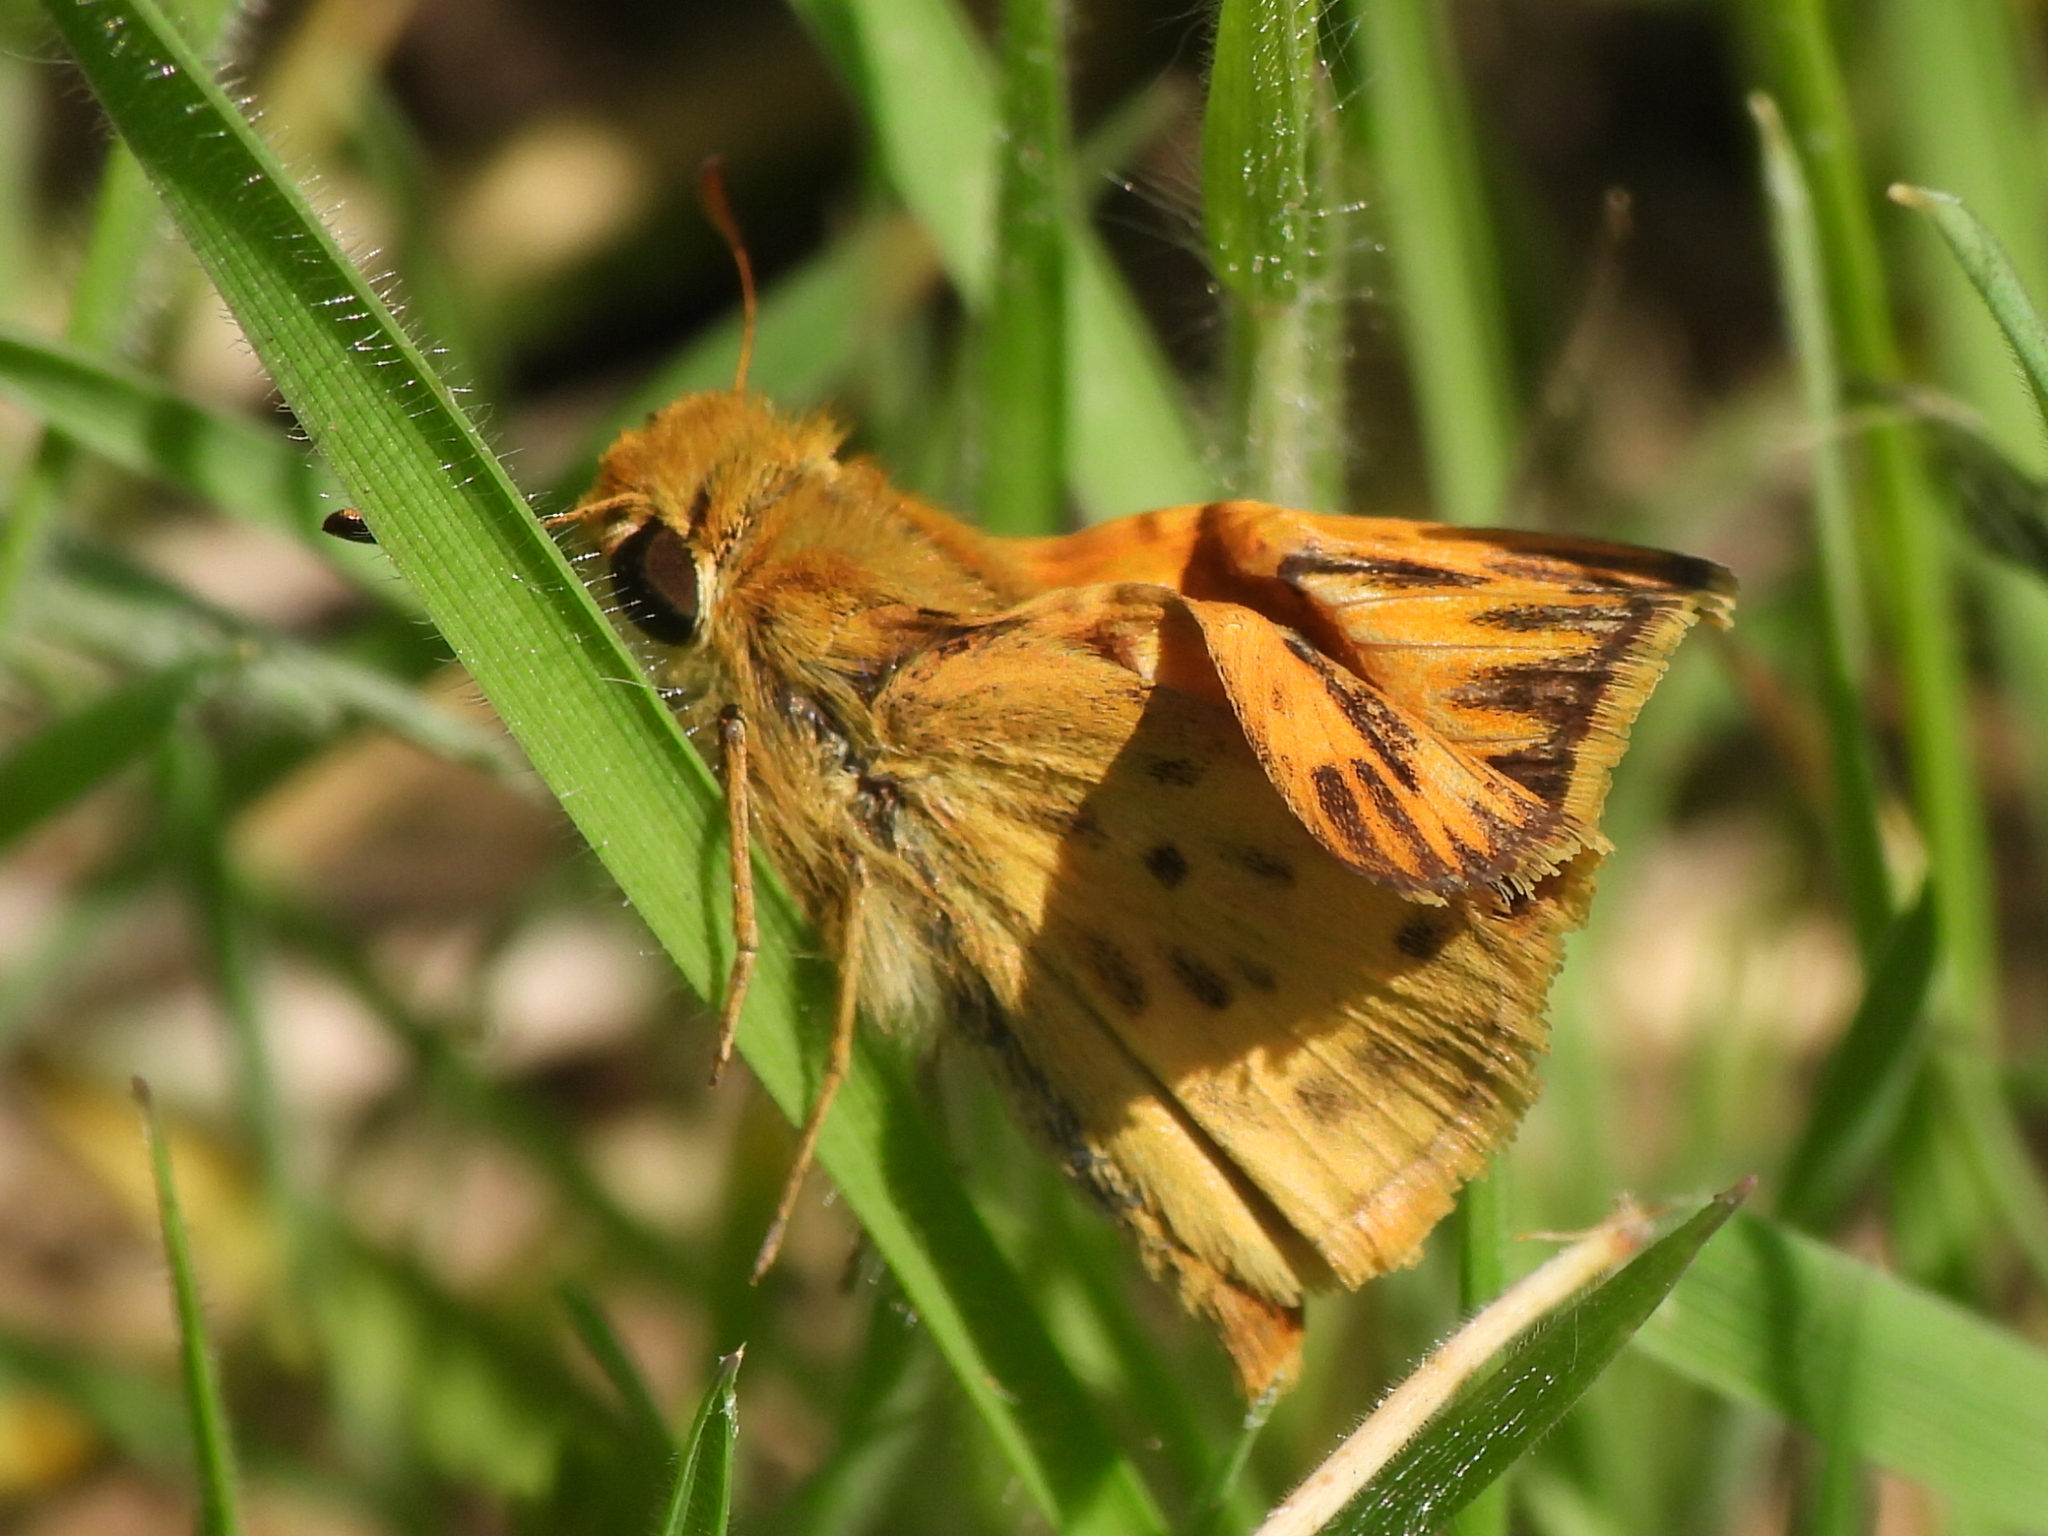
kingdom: Animalia
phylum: Arthropoda
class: Insecta
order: Lepidoptera
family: Hesperiidae
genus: Hylephila
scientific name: Hylephila phyleus
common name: Fiery skipper
